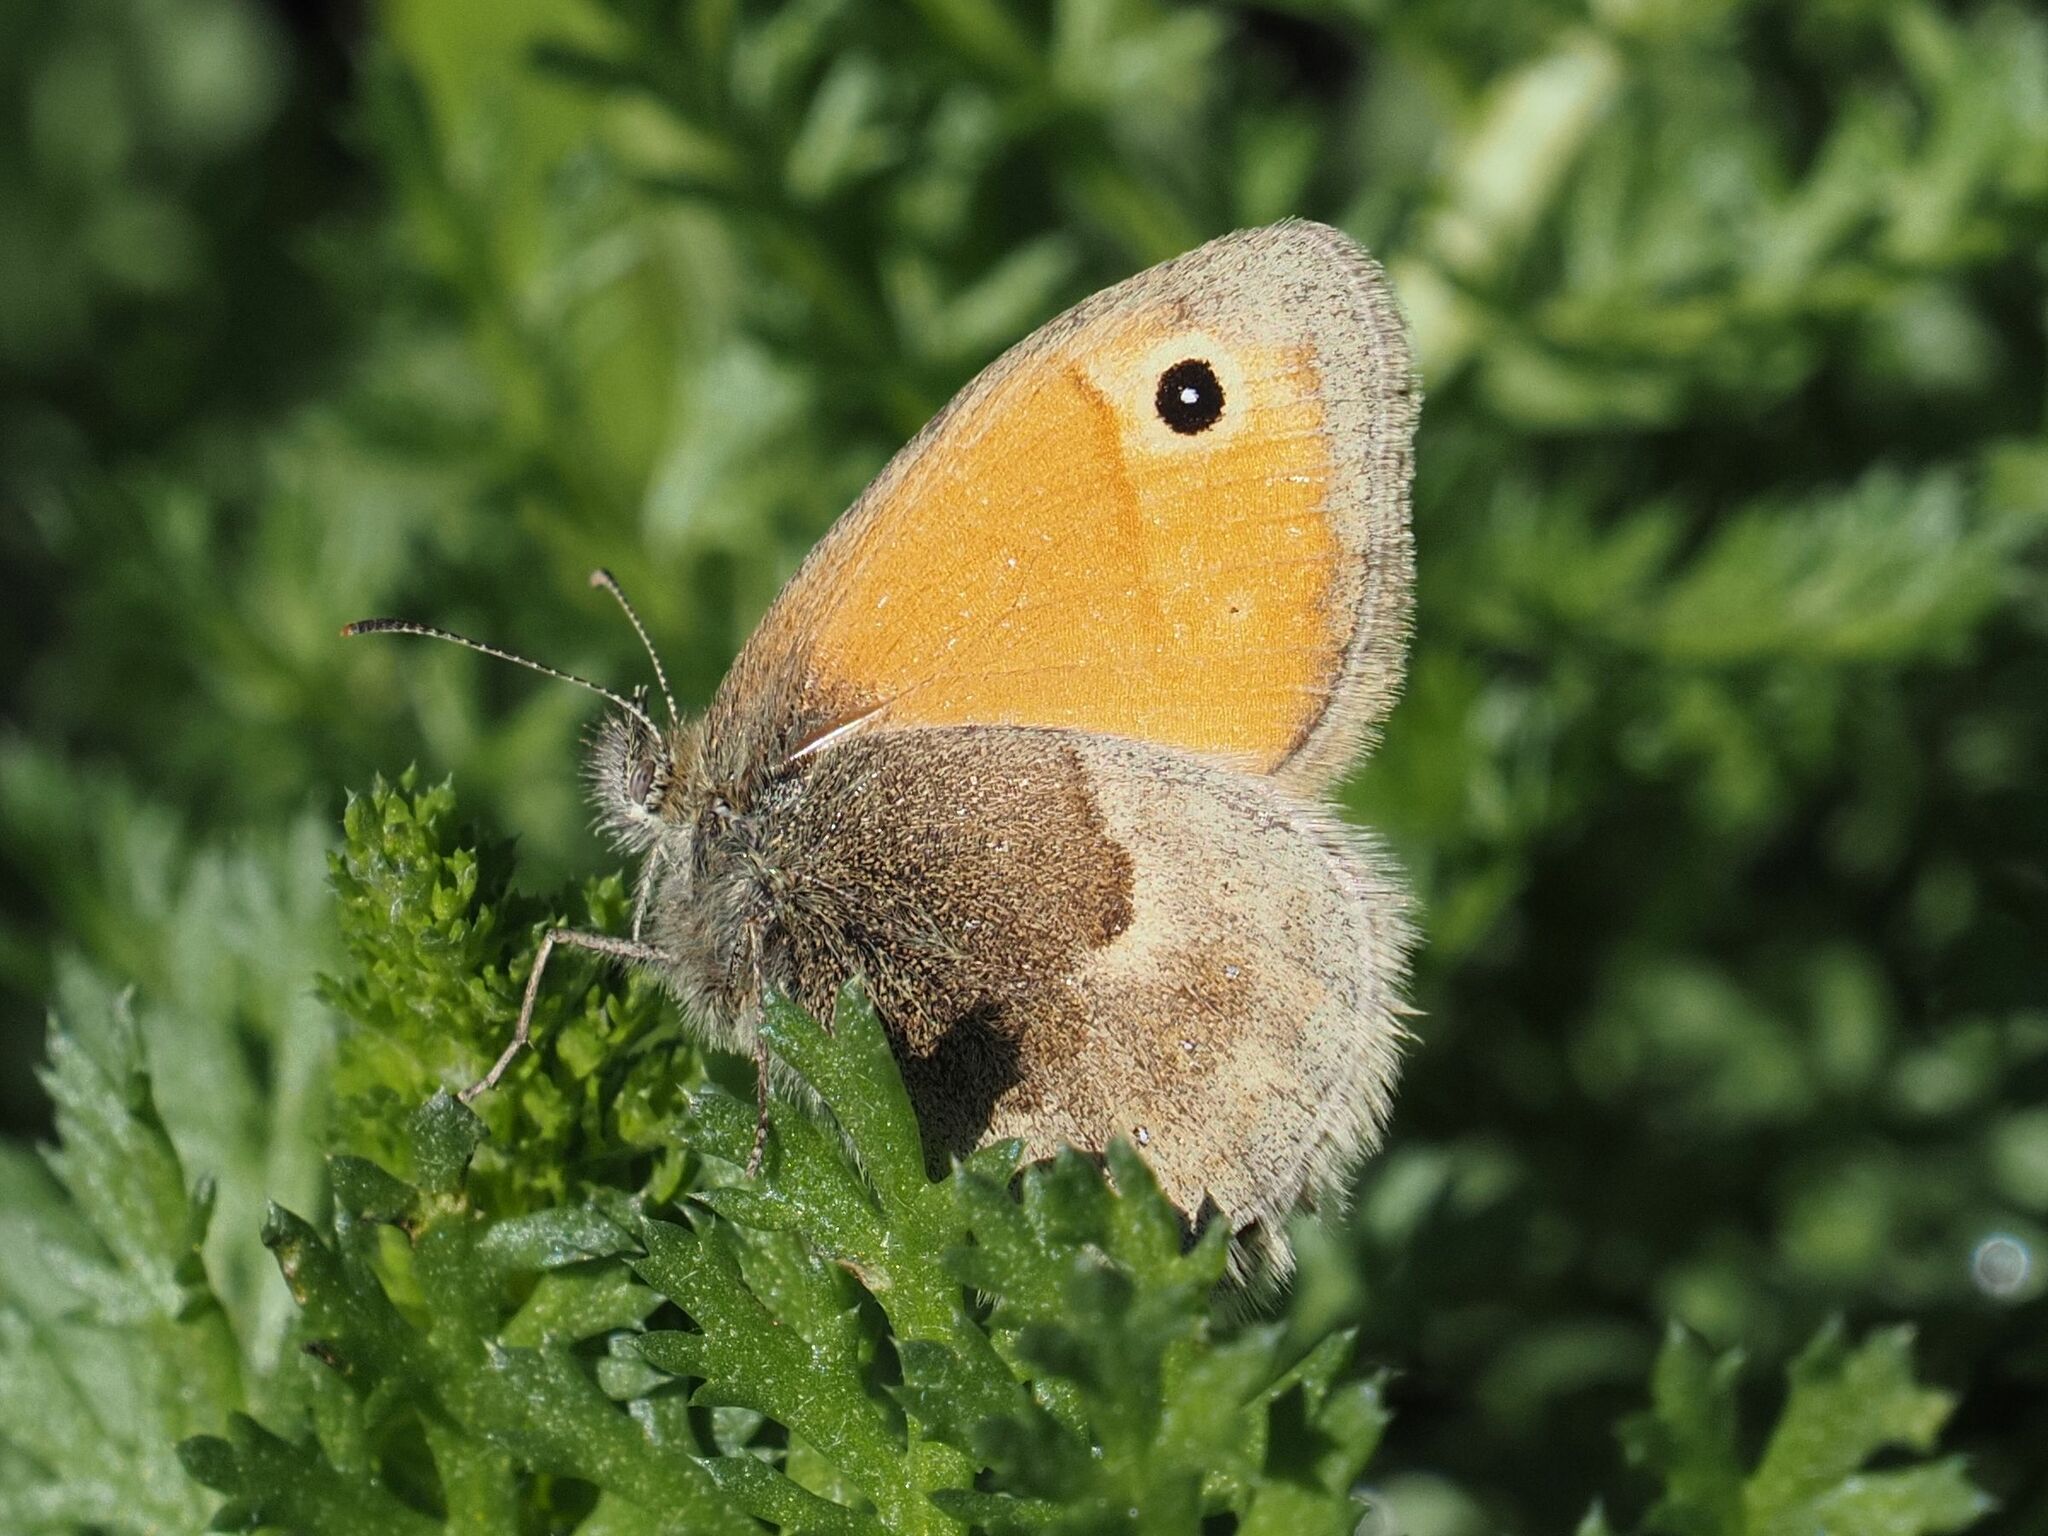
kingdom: Animalia
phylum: Arthropoda
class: Insecta
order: Lepidoptera
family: Nymphalidae
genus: Coenonympha
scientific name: Coenonympha pamphilus
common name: Small heath
